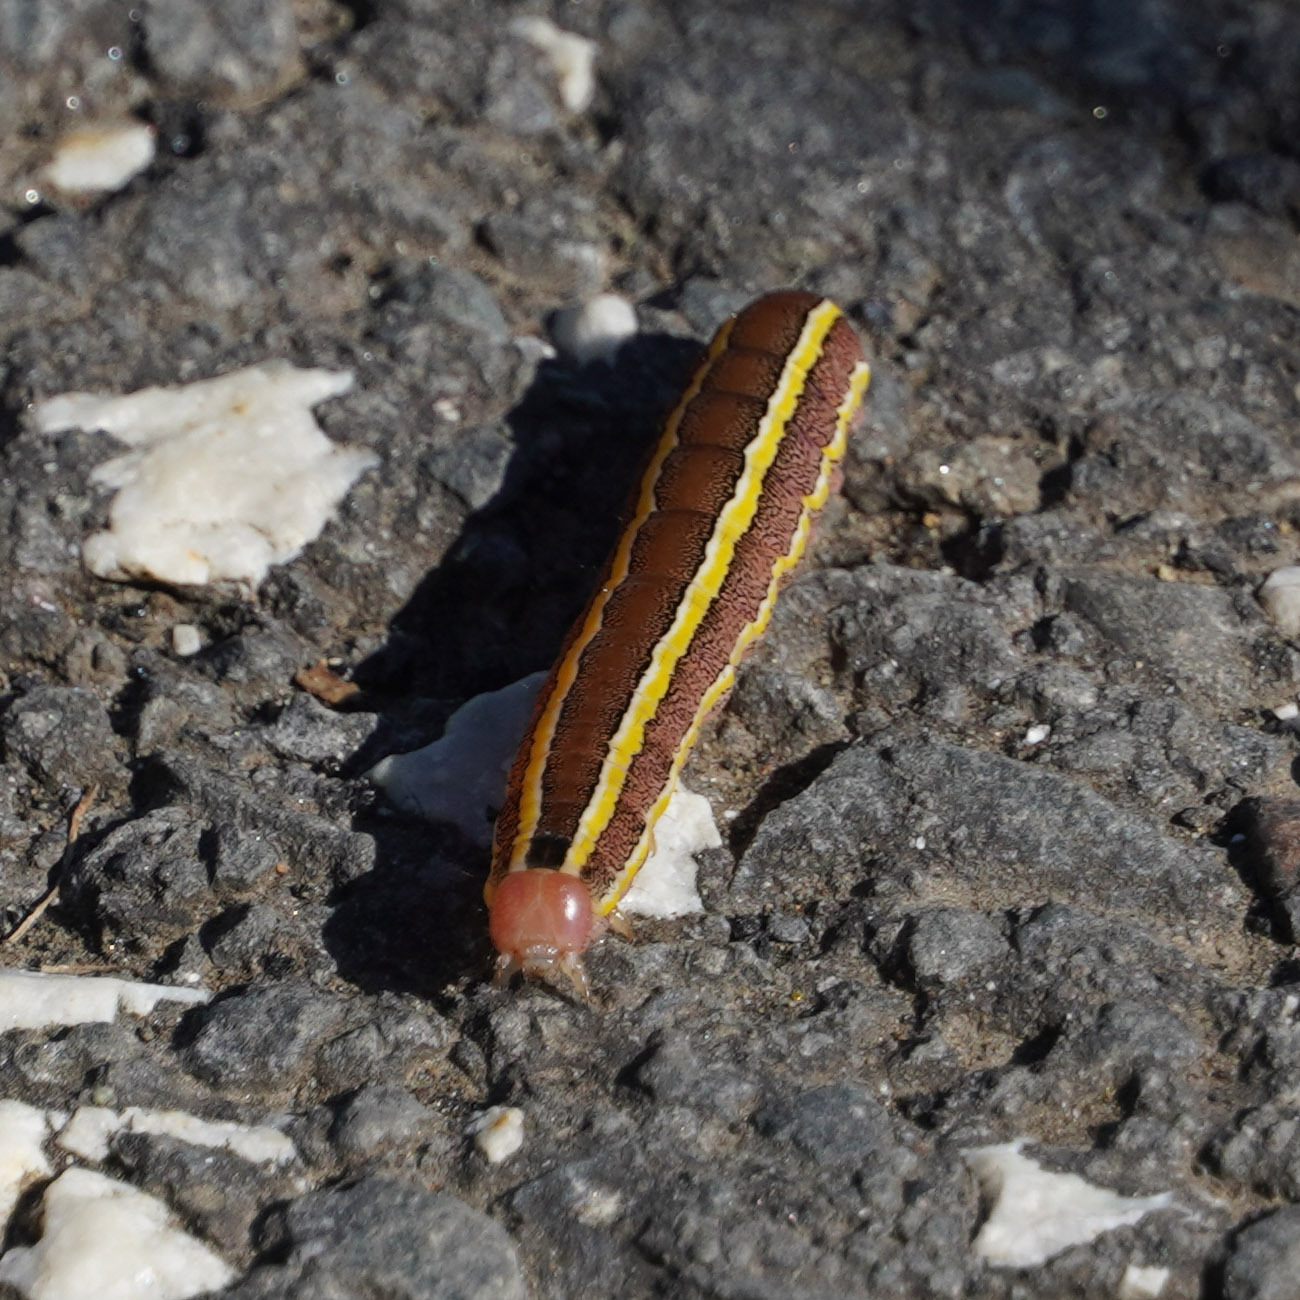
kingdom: Animalia
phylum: Arthropoda
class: Insecta
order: Lepidoptera
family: Noctuidae
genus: Ceramica
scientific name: Ceramica pisi
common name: Broom moth
